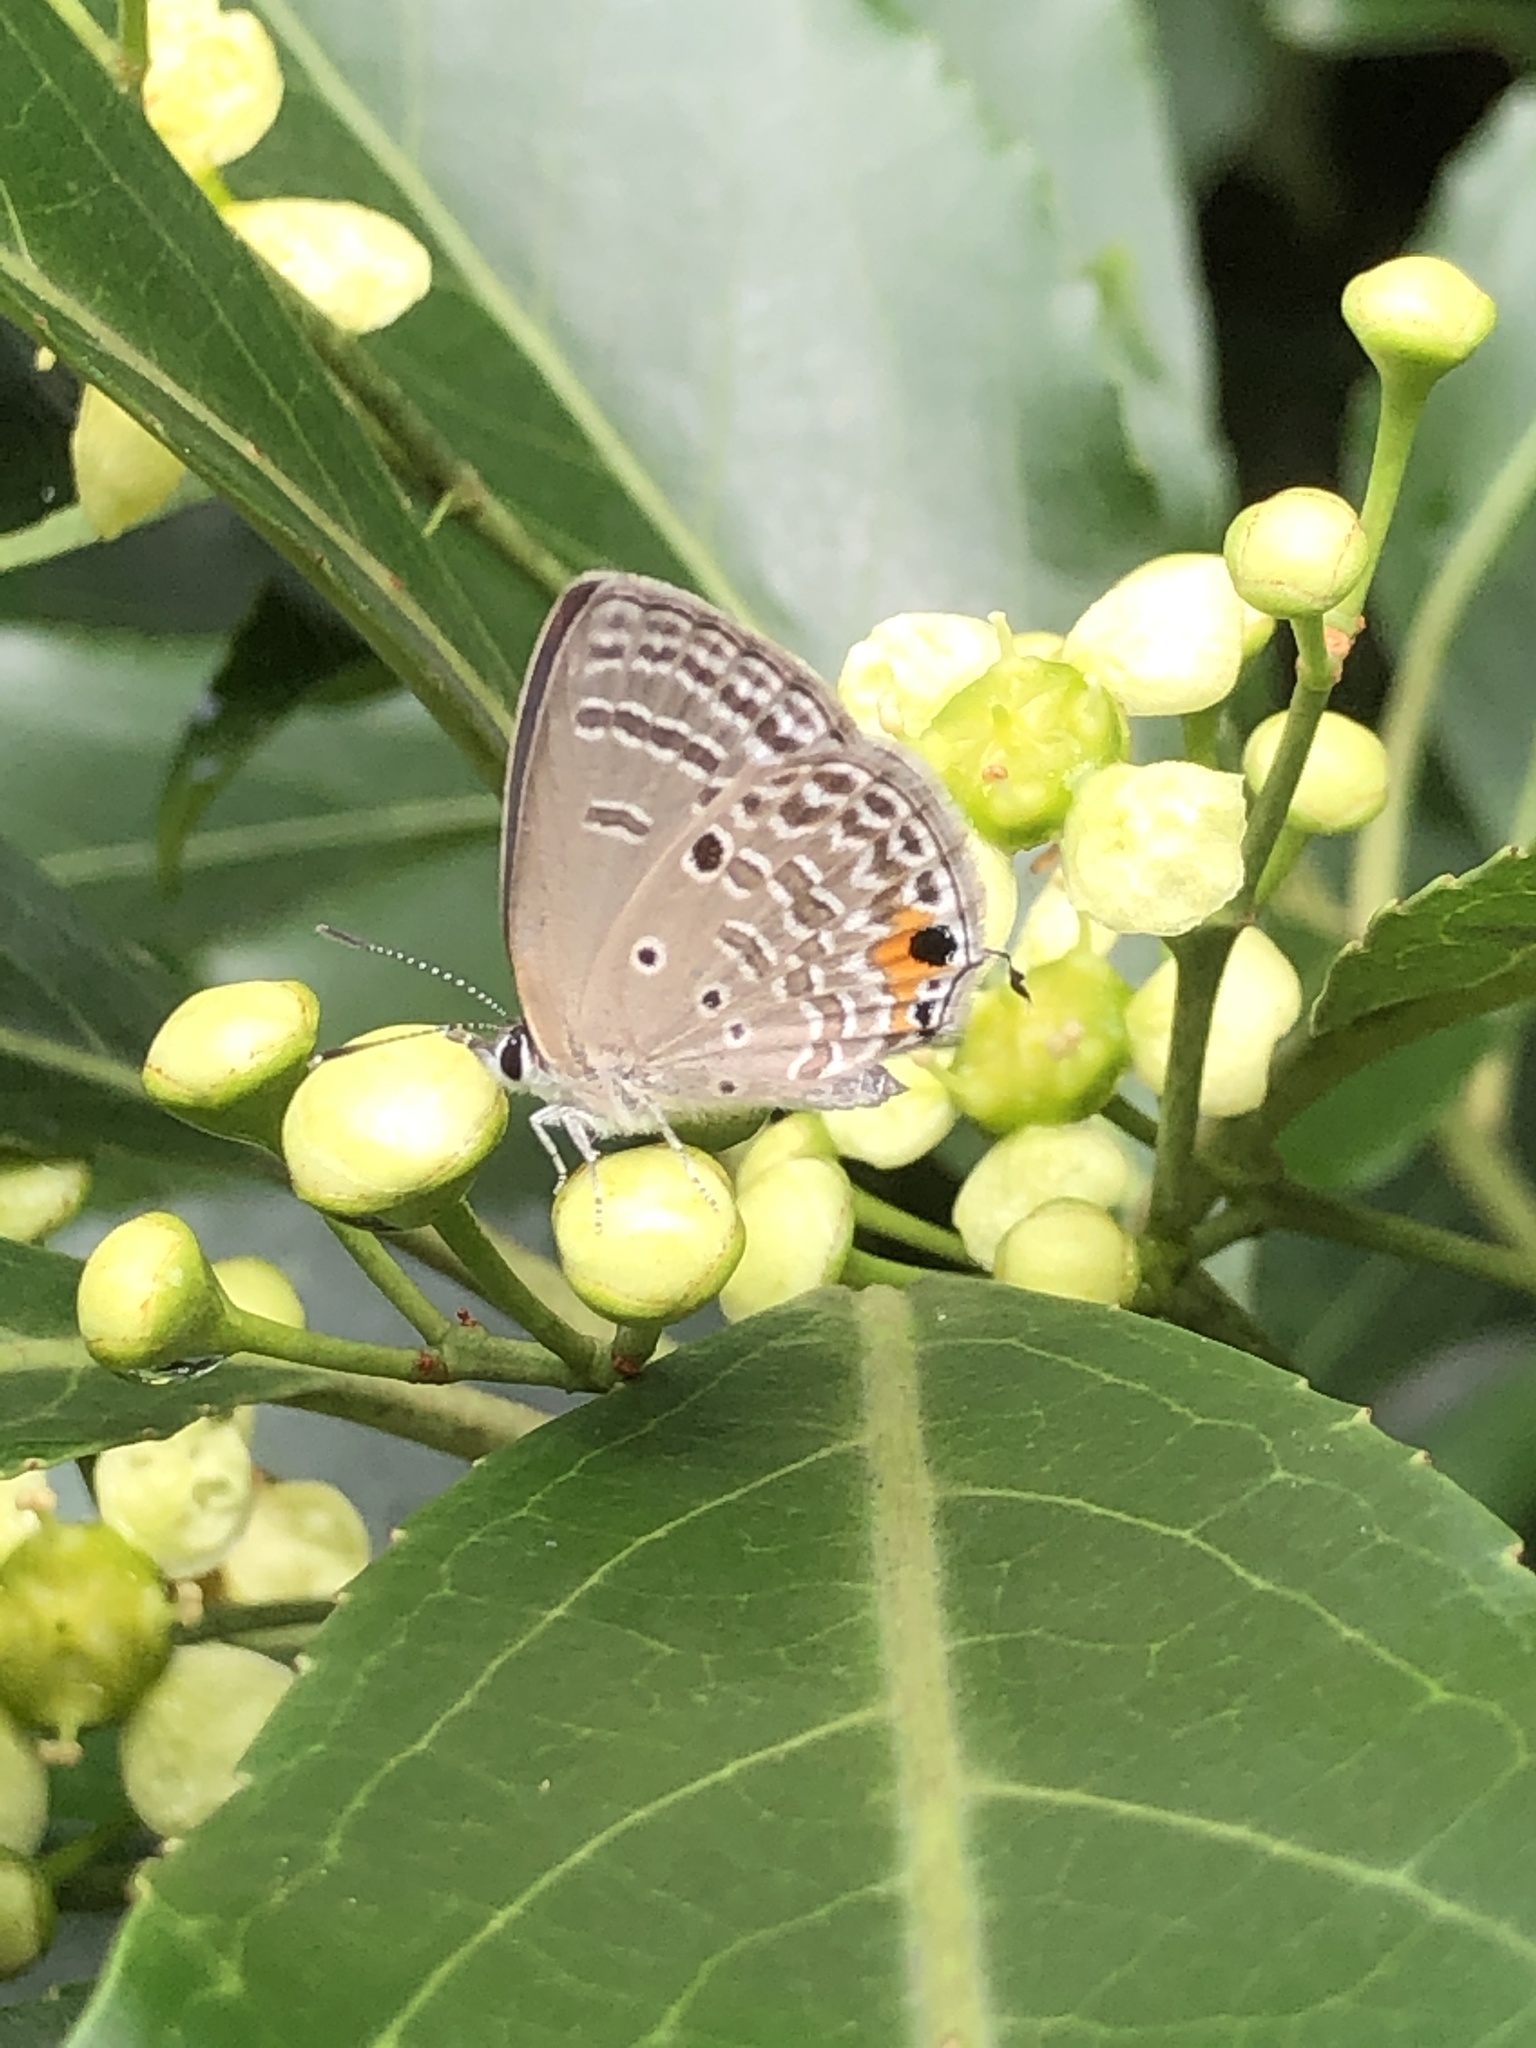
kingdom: Animalia
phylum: Arthropoda
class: Insecta
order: Lepidoptera
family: Lycaenidae
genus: Luthrodes
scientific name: Luthrodes pandava
